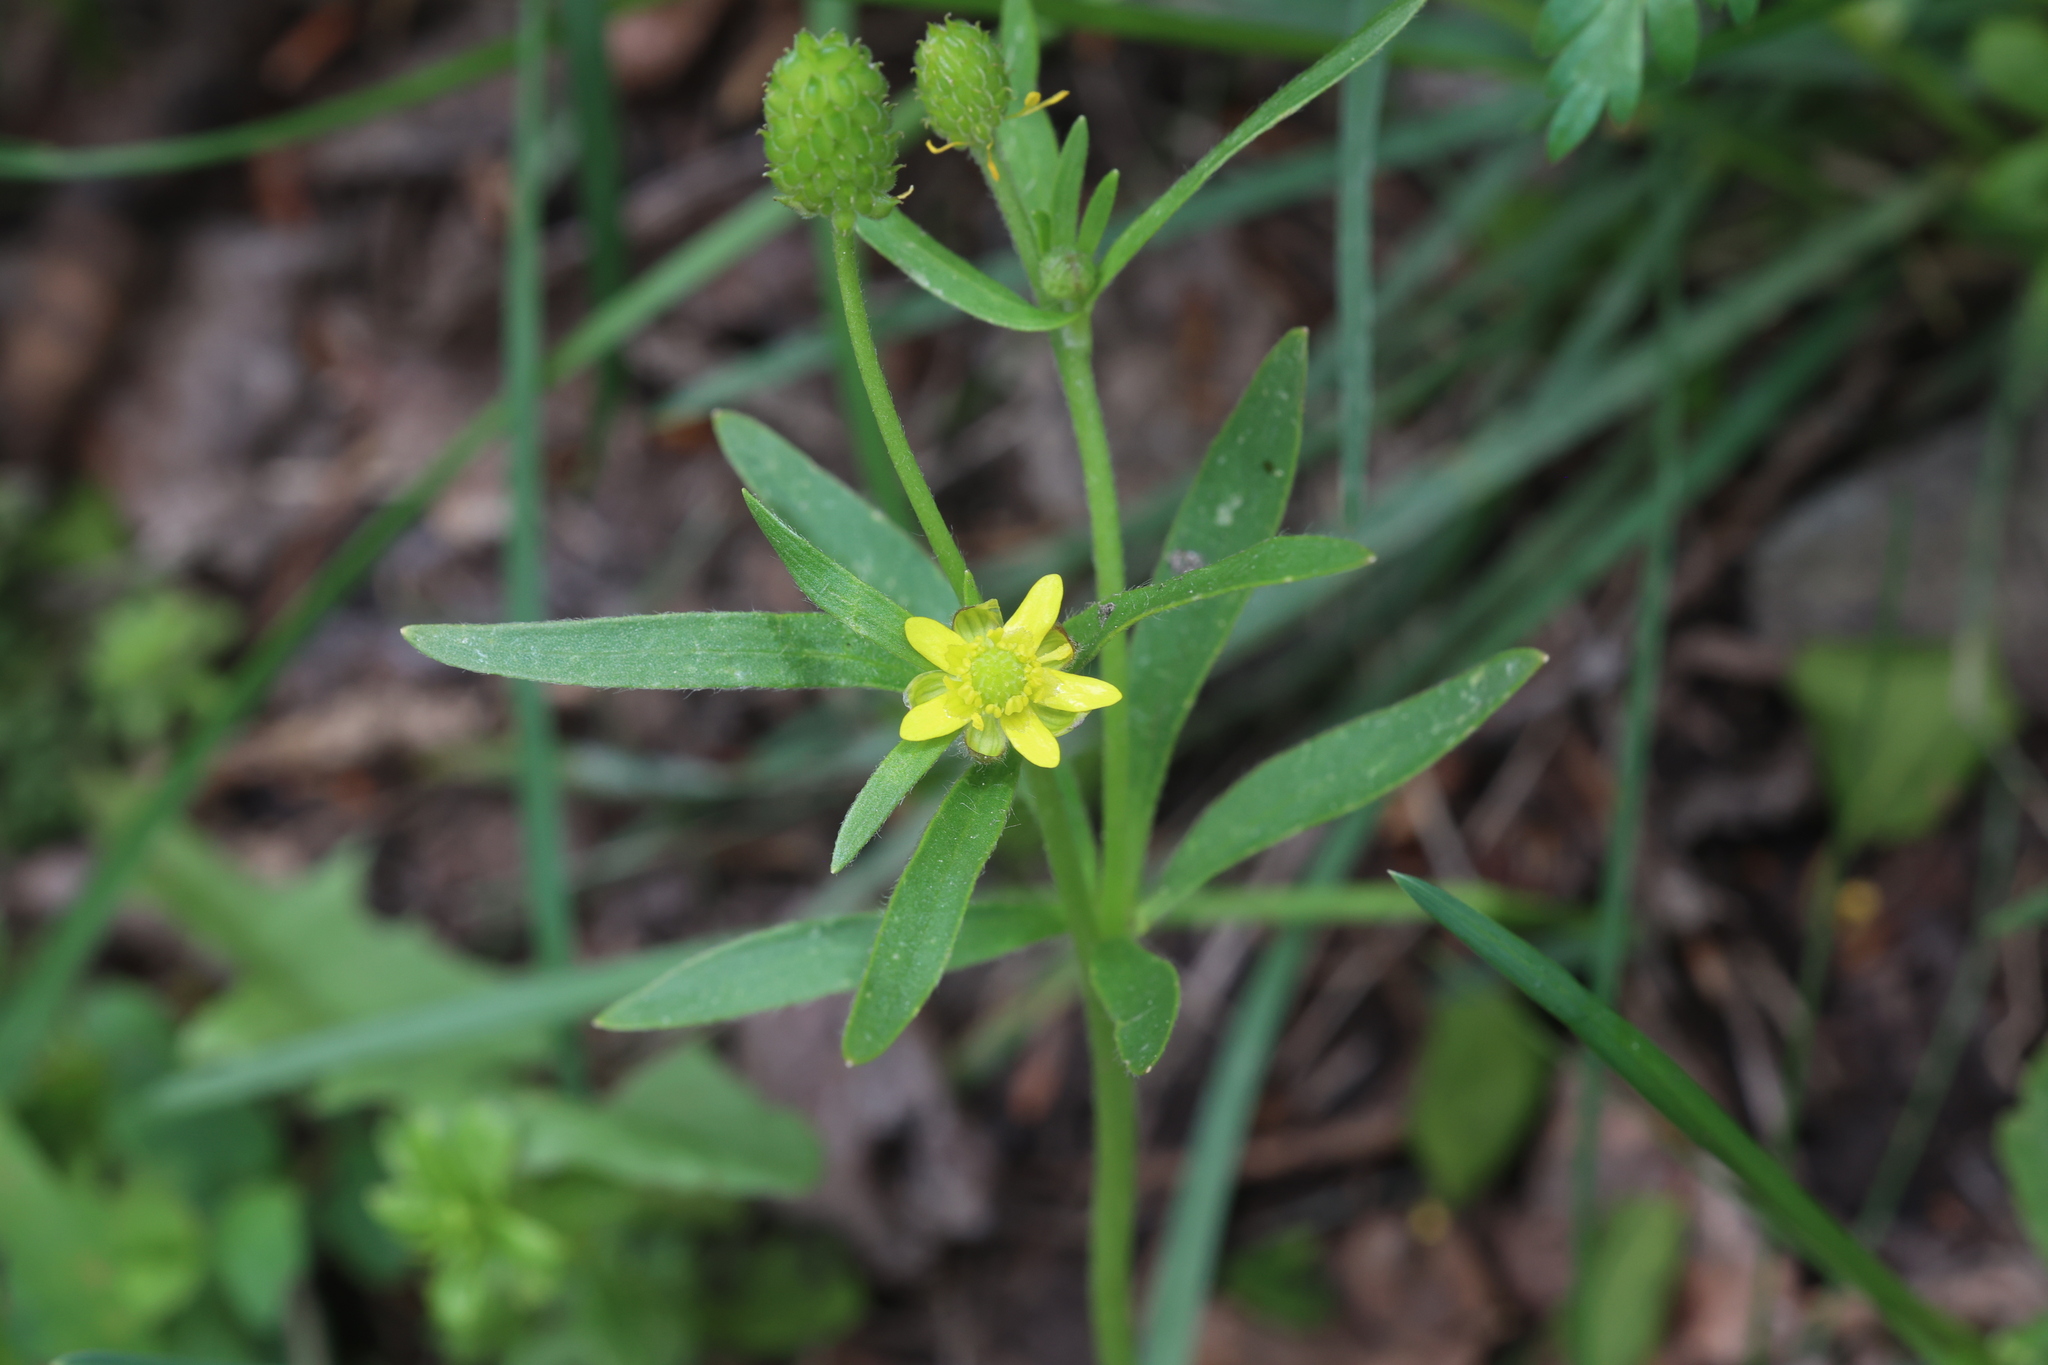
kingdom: Plantae
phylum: Tracheophyta
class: Magnoliopsida
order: Ranunculales
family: Ranunculaceae
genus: Ranunculus
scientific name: Ranunculus abortivus
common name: Early wood buttercup
